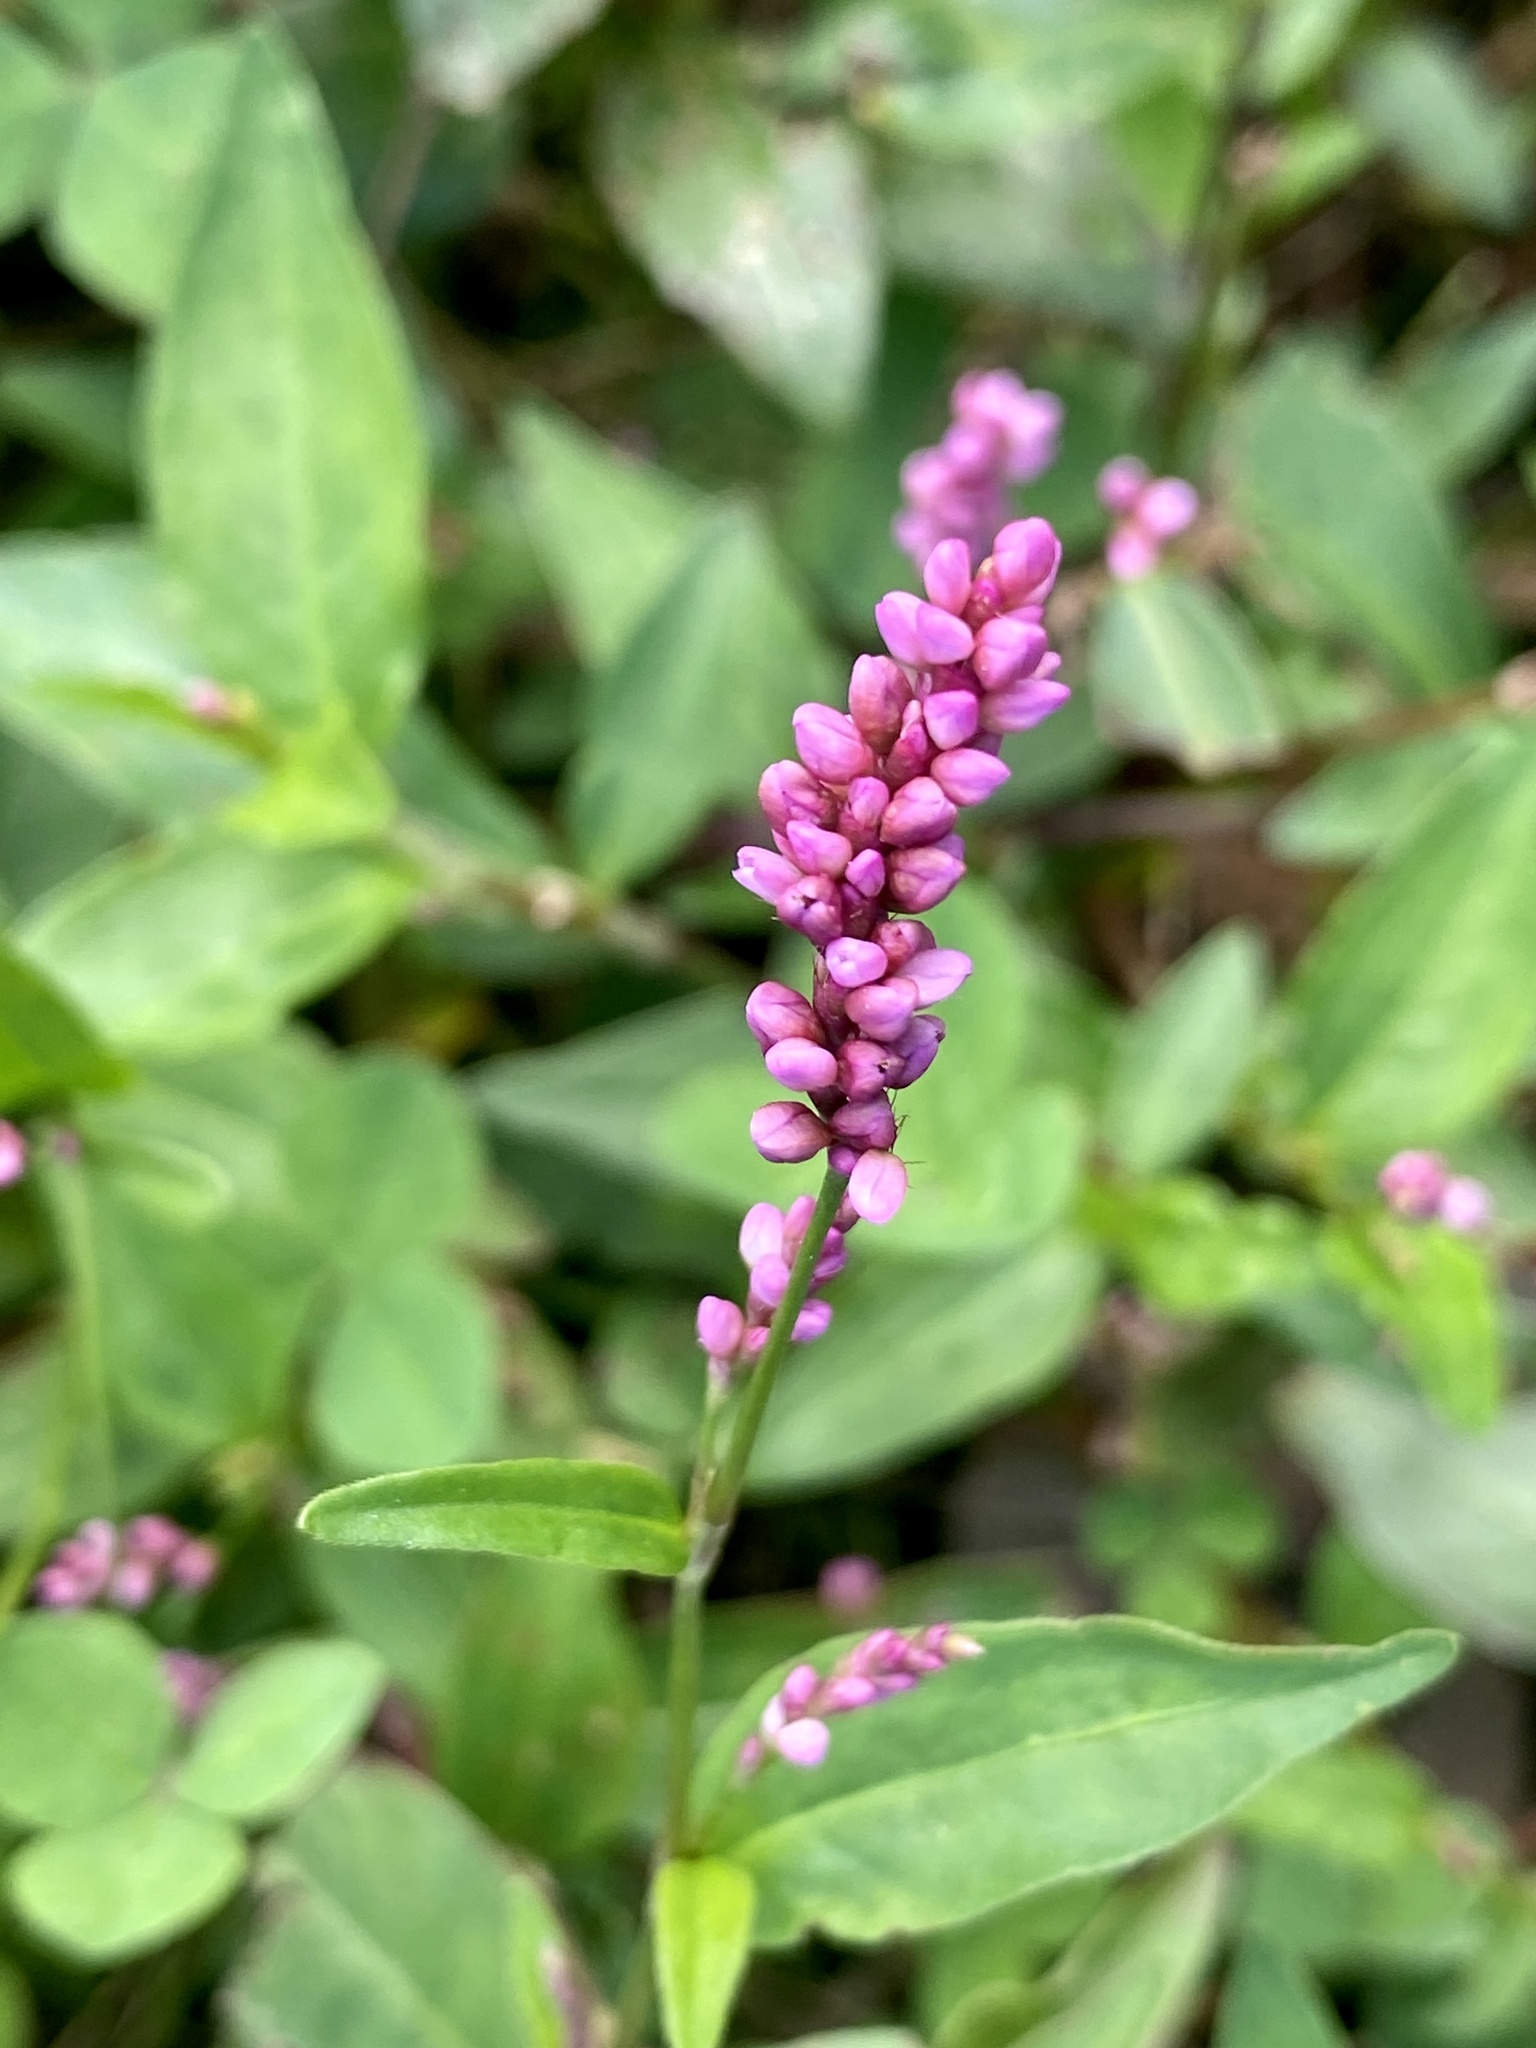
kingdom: Plantae
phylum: Tracheophyta
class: Magnoliopsida
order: Caryophyllales
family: Polygonaceae
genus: Persicaria
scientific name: Persicaria longiseta
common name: Bristly lady's-thumb
